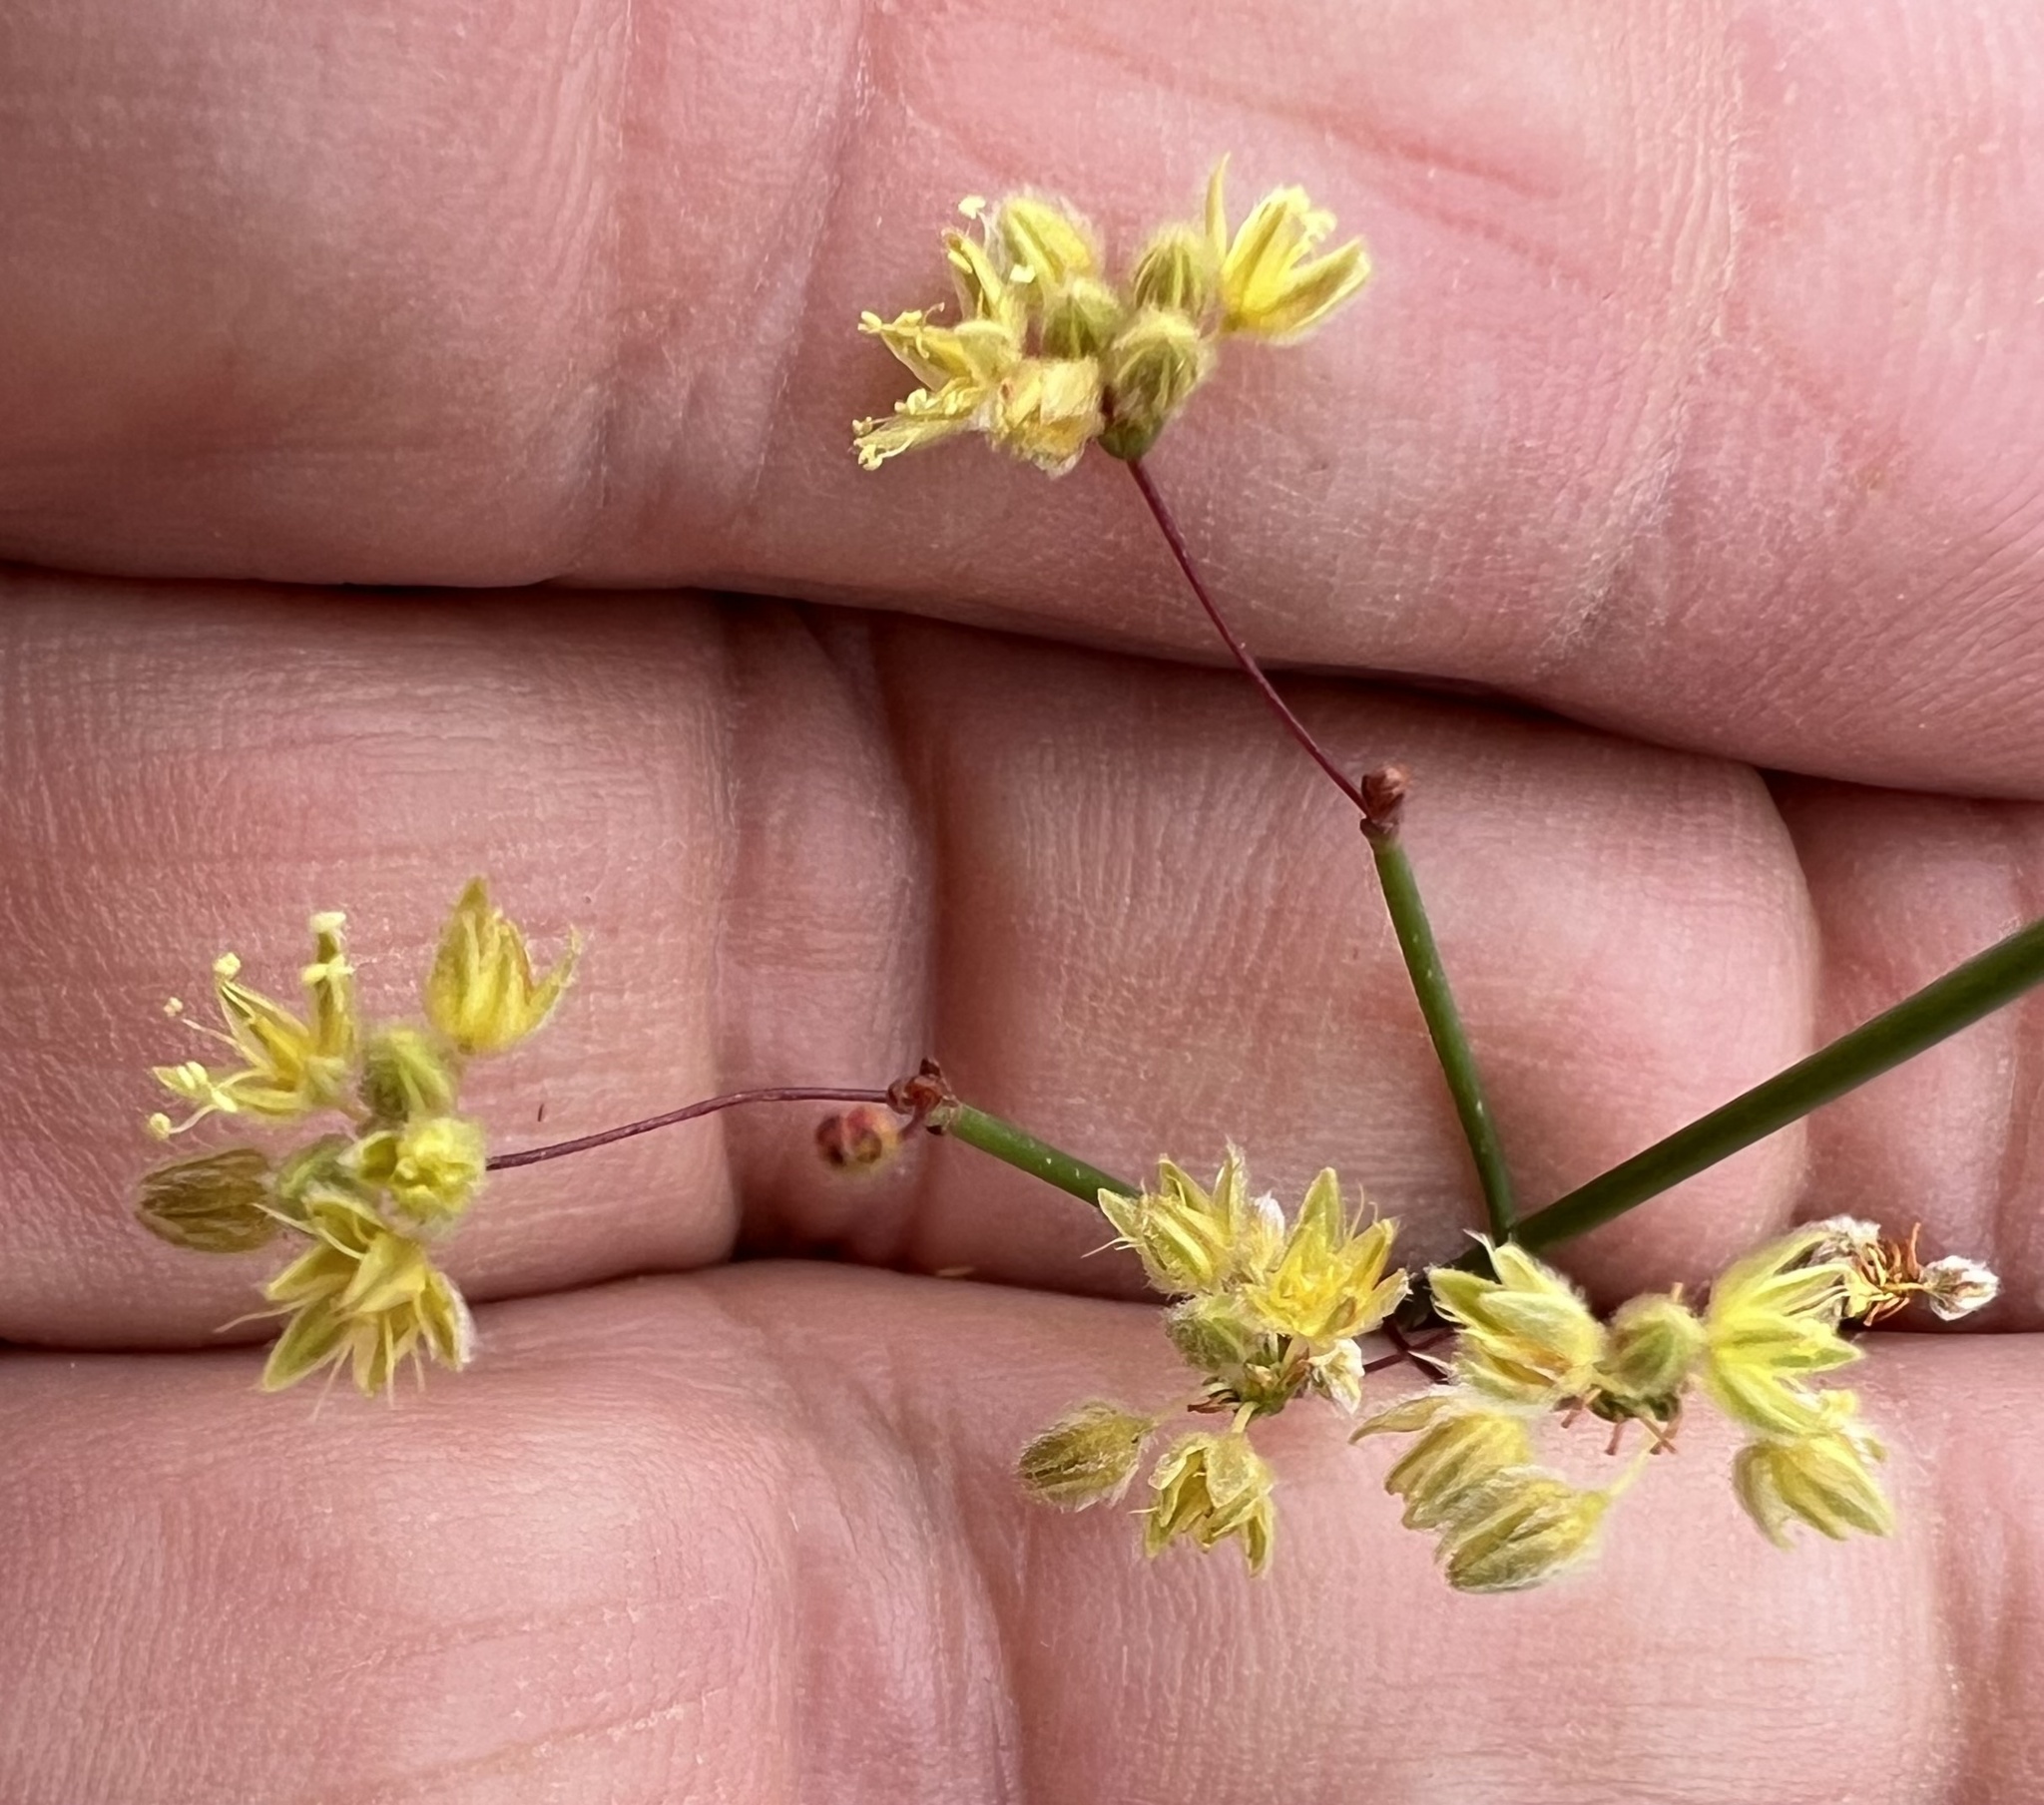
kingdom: Plantae
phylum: Tracheophyta
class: Magnoliopsida
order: Caryophyllales
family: Polygonaceae
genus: Eriogonum
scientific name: Eriogonum inflatum
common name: Desert trumpet
